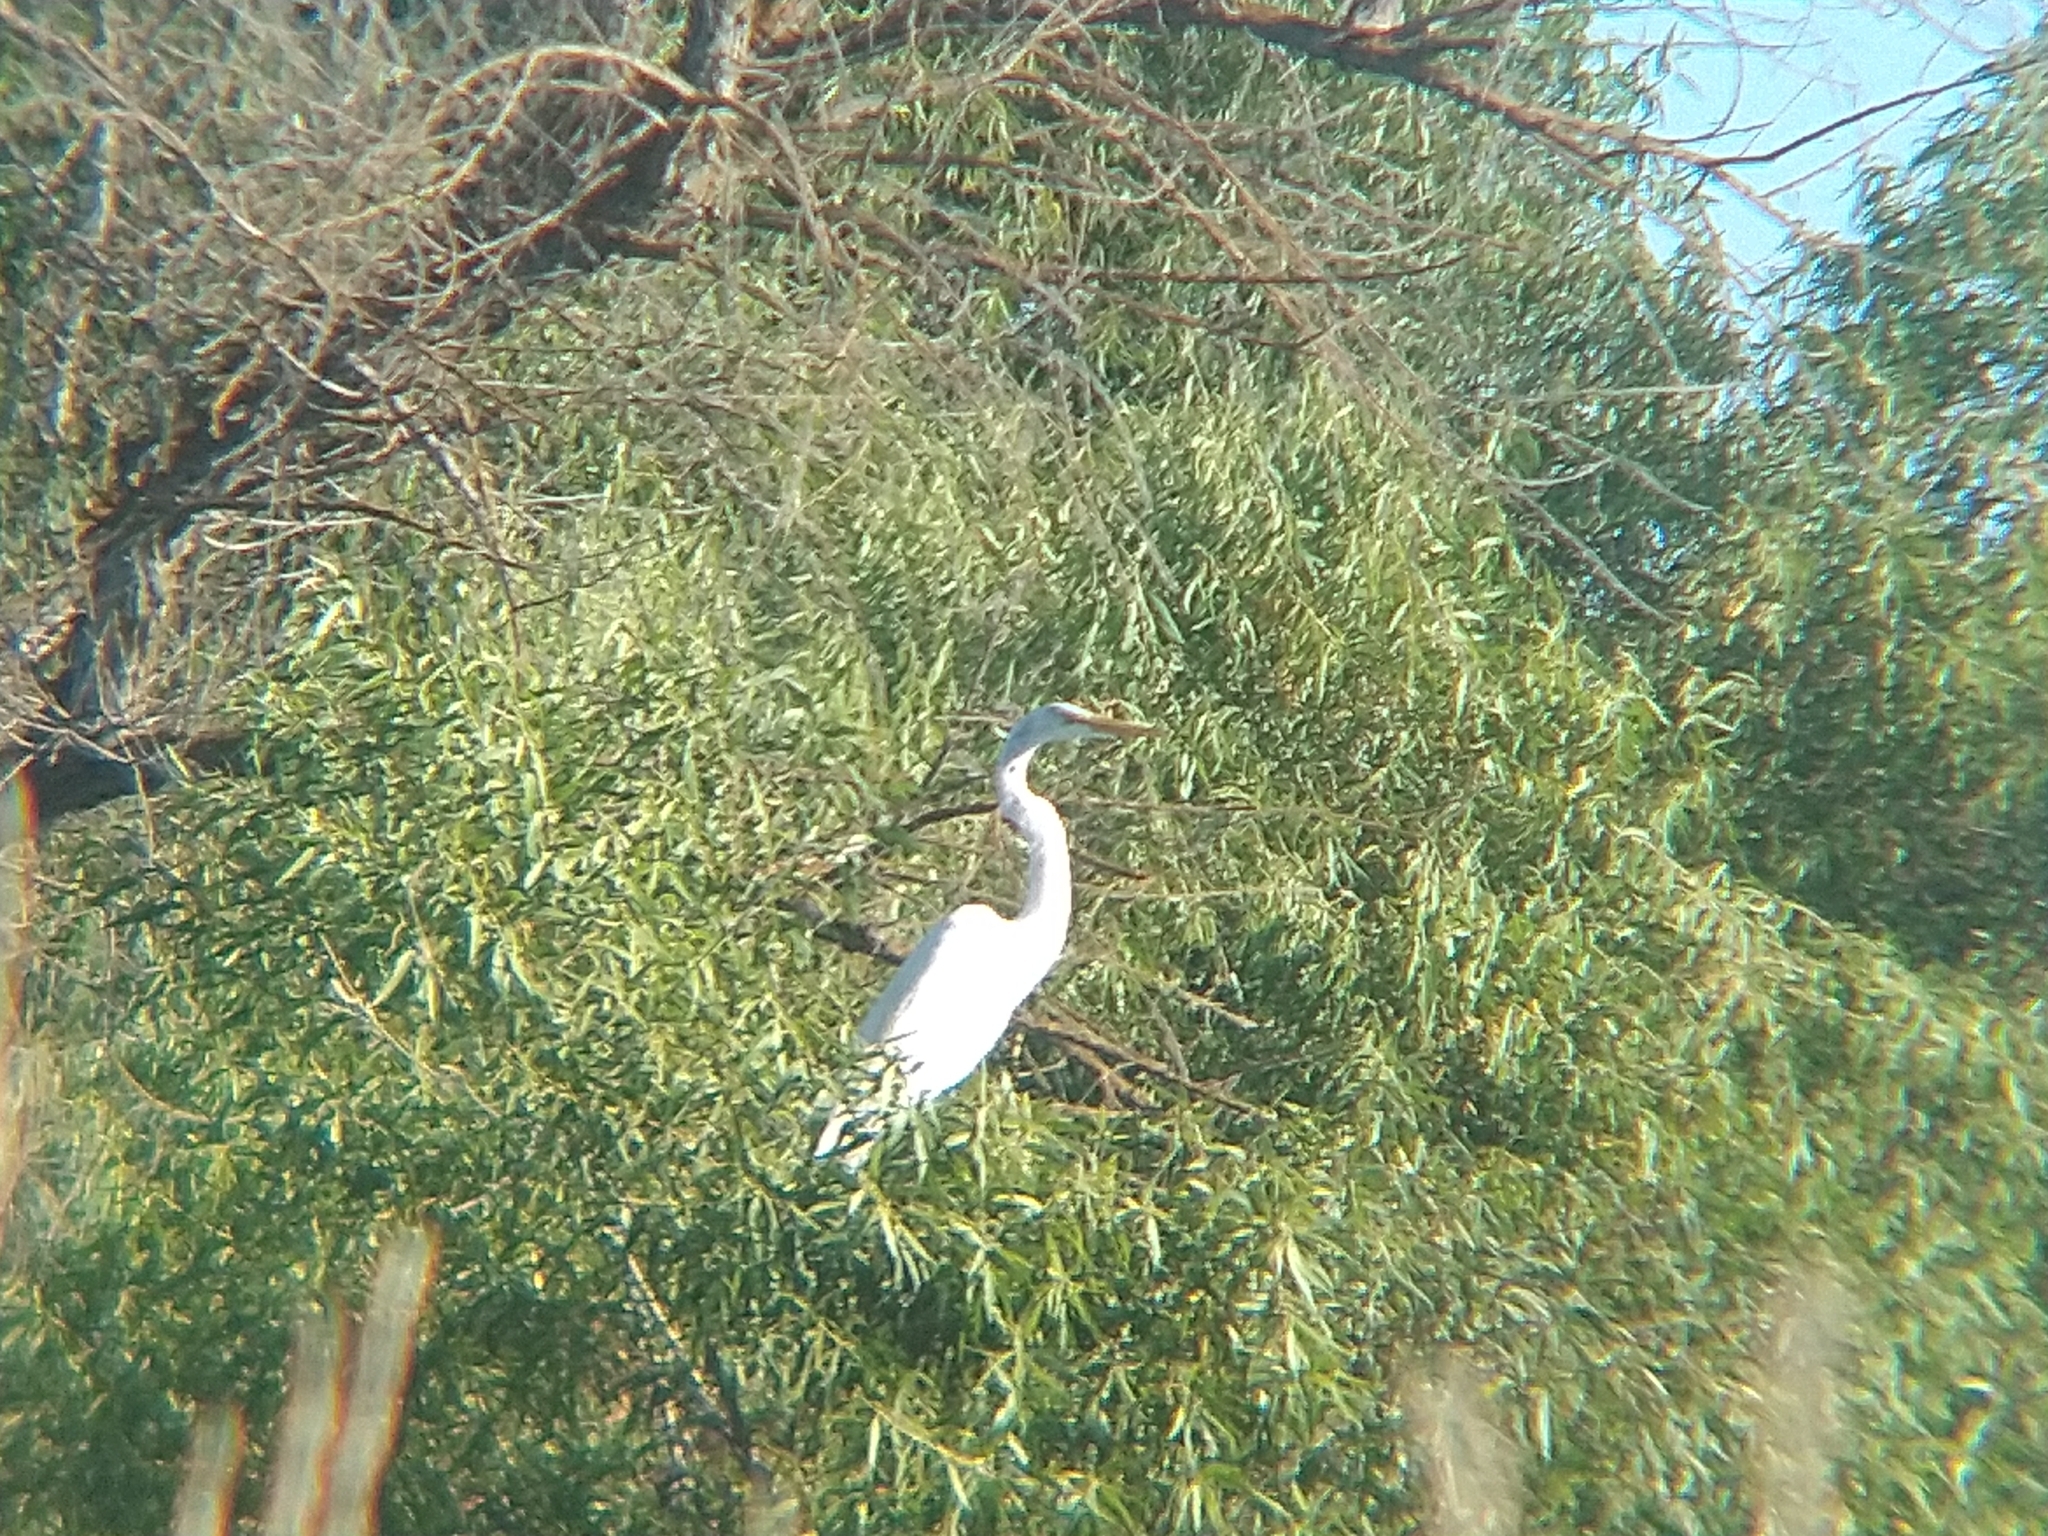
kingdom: Animalia
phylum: Chordata
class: Aves
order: Pelecaniformes
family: Ardeidae
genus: Ardea
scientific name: Ardea alba
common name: Great egret
